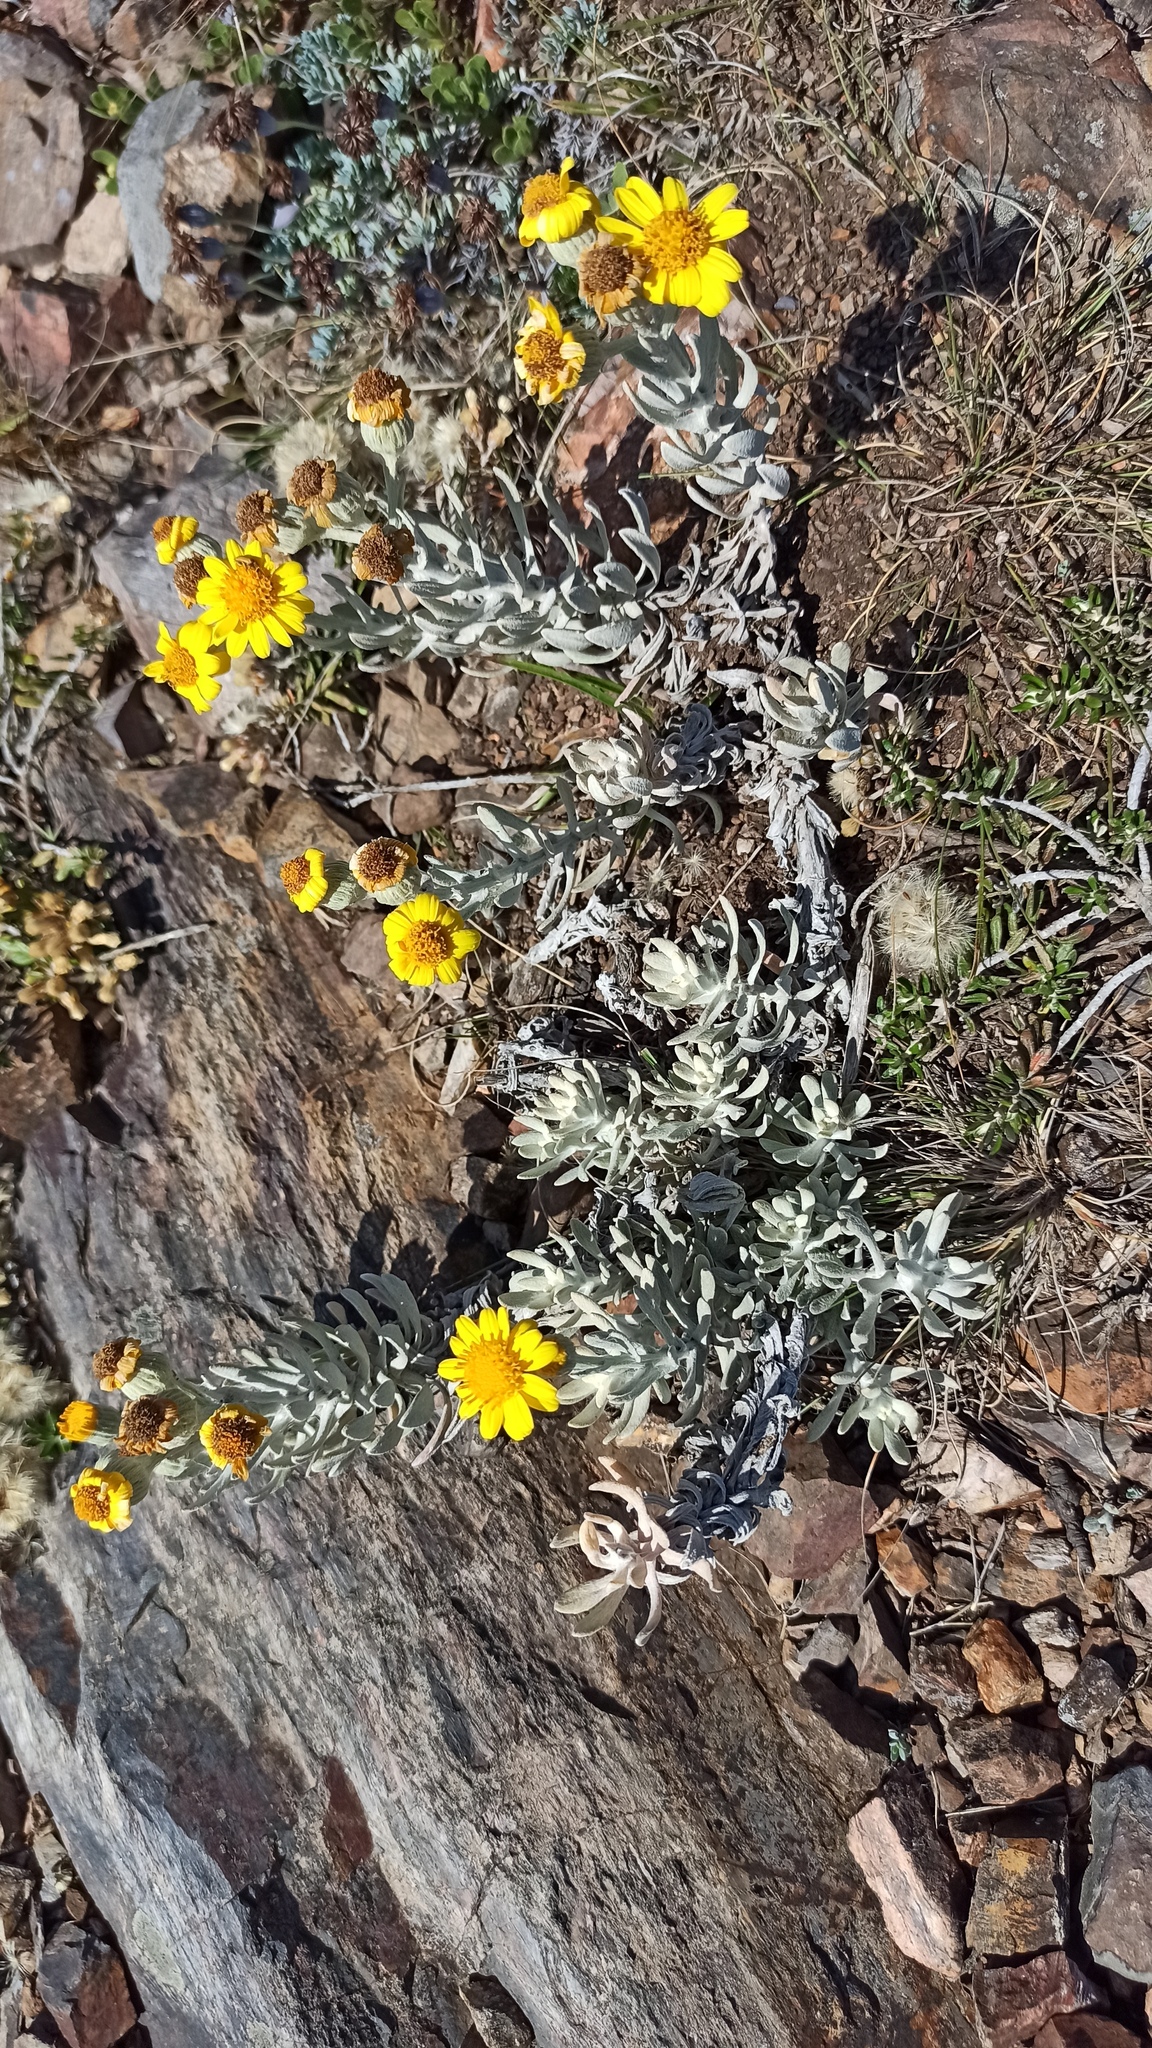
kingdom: Plantae
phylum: Tracheophyta
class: Magnoliopsida
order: Asterales
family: Asteraceae
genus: Senecio
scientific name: Senecio ostenii
